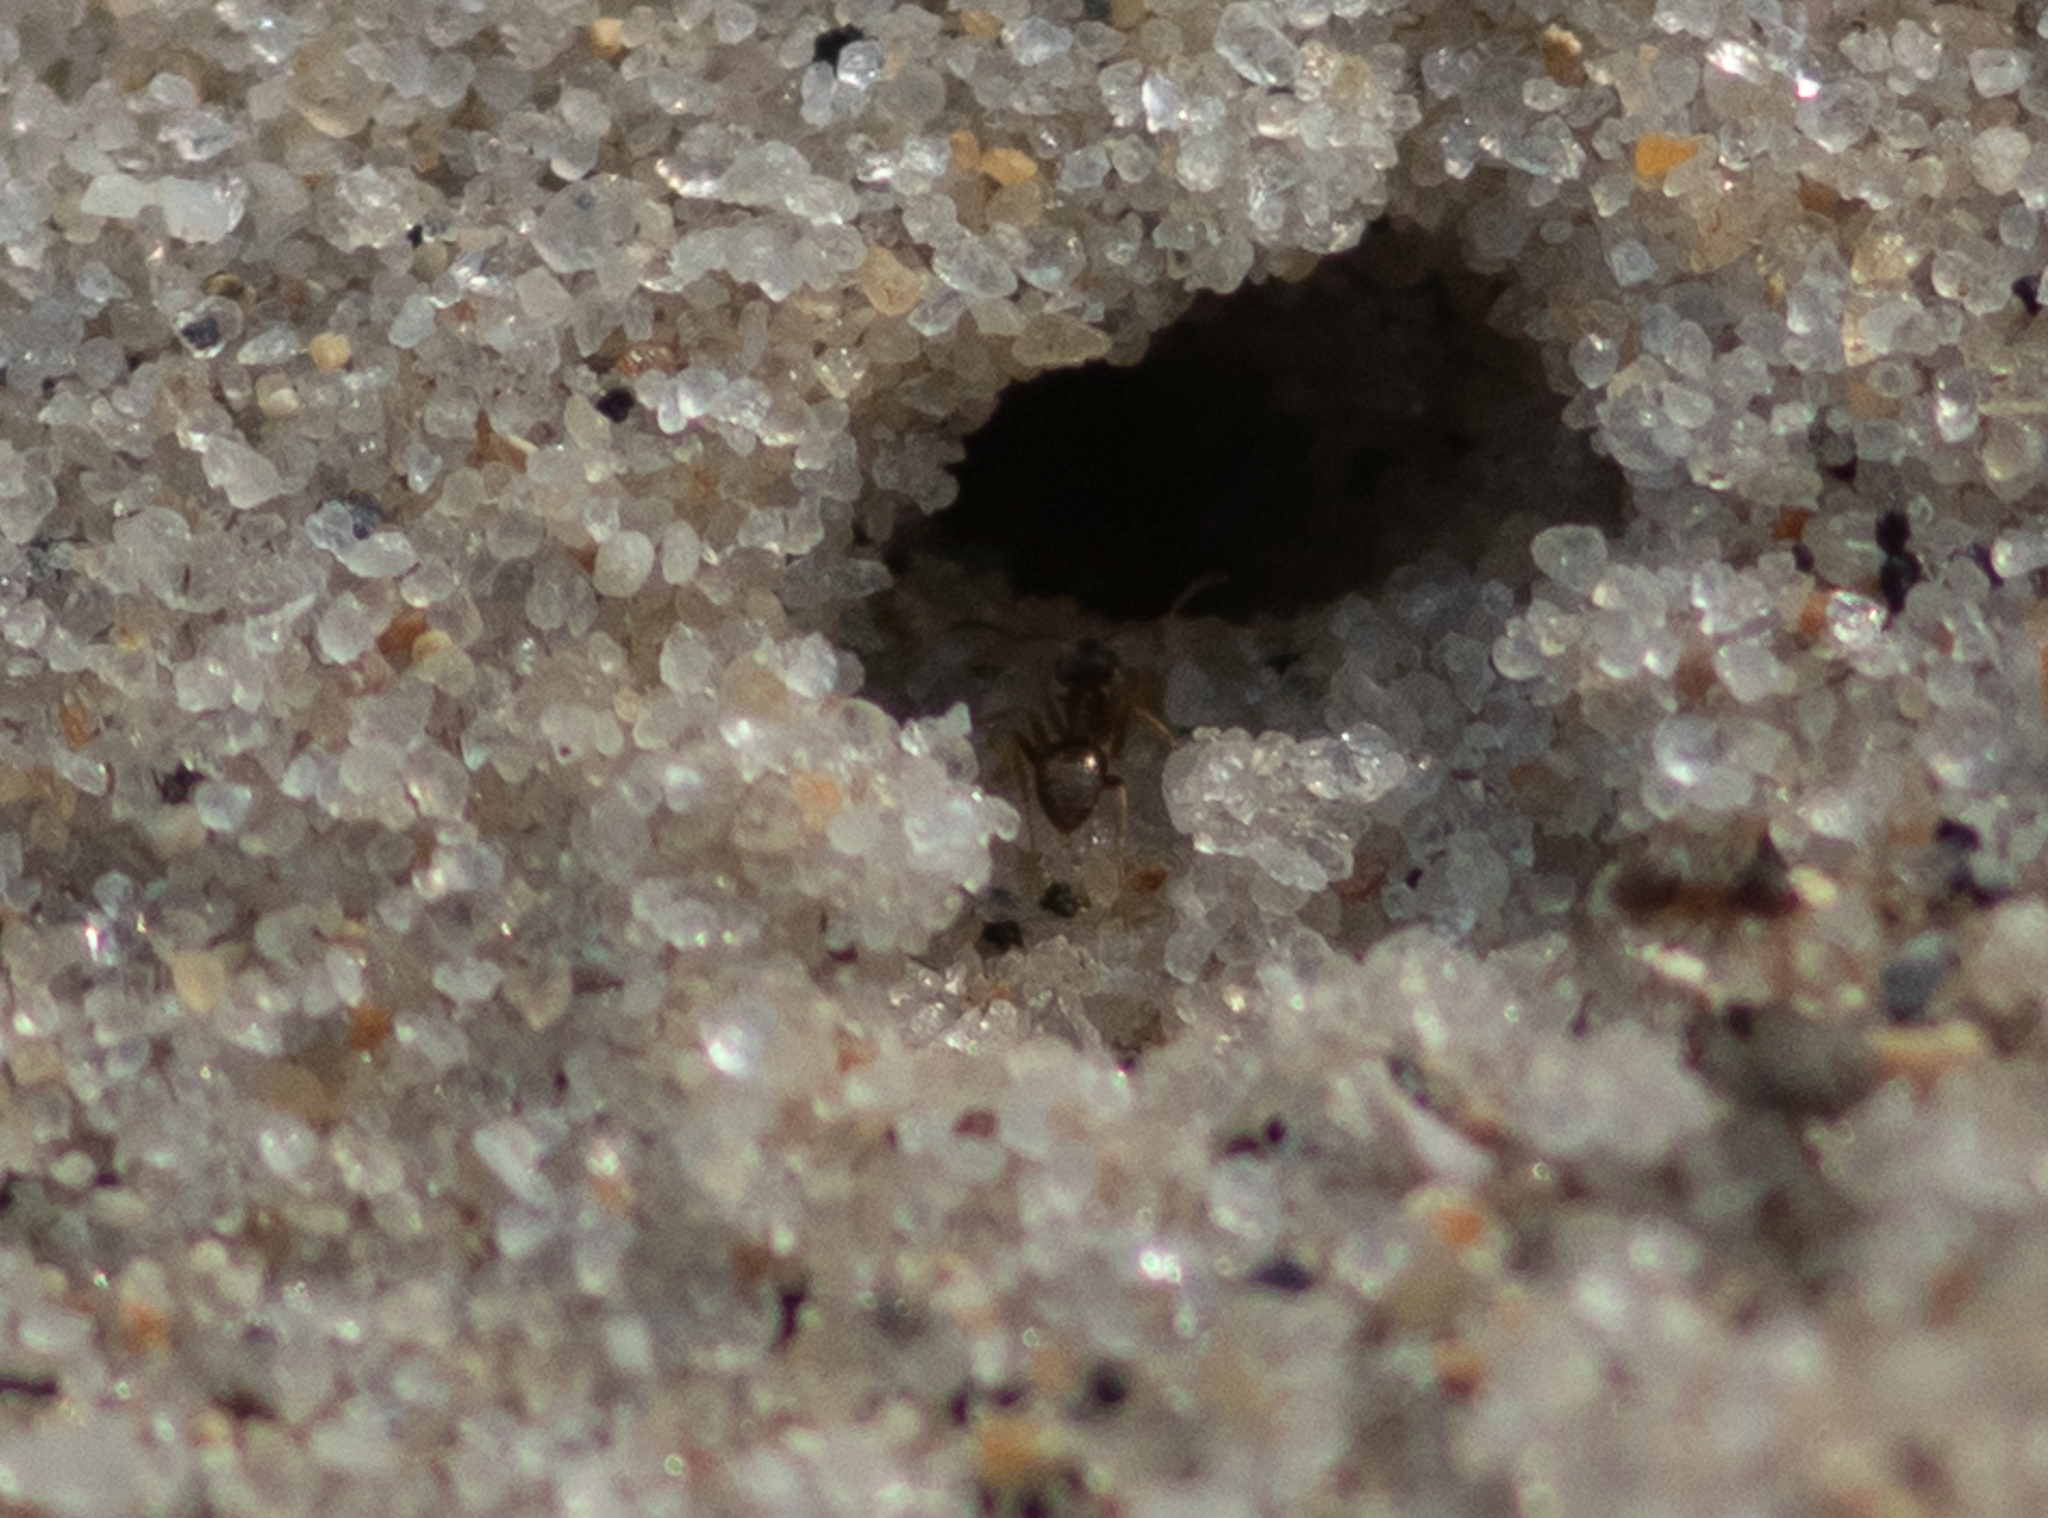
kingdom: Animalia
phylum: Arthropoda
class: Insecta
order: Hymenoptera
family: Formicidae
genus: Lasius
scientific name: Lasius neoniger
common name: Turfgrass ant
